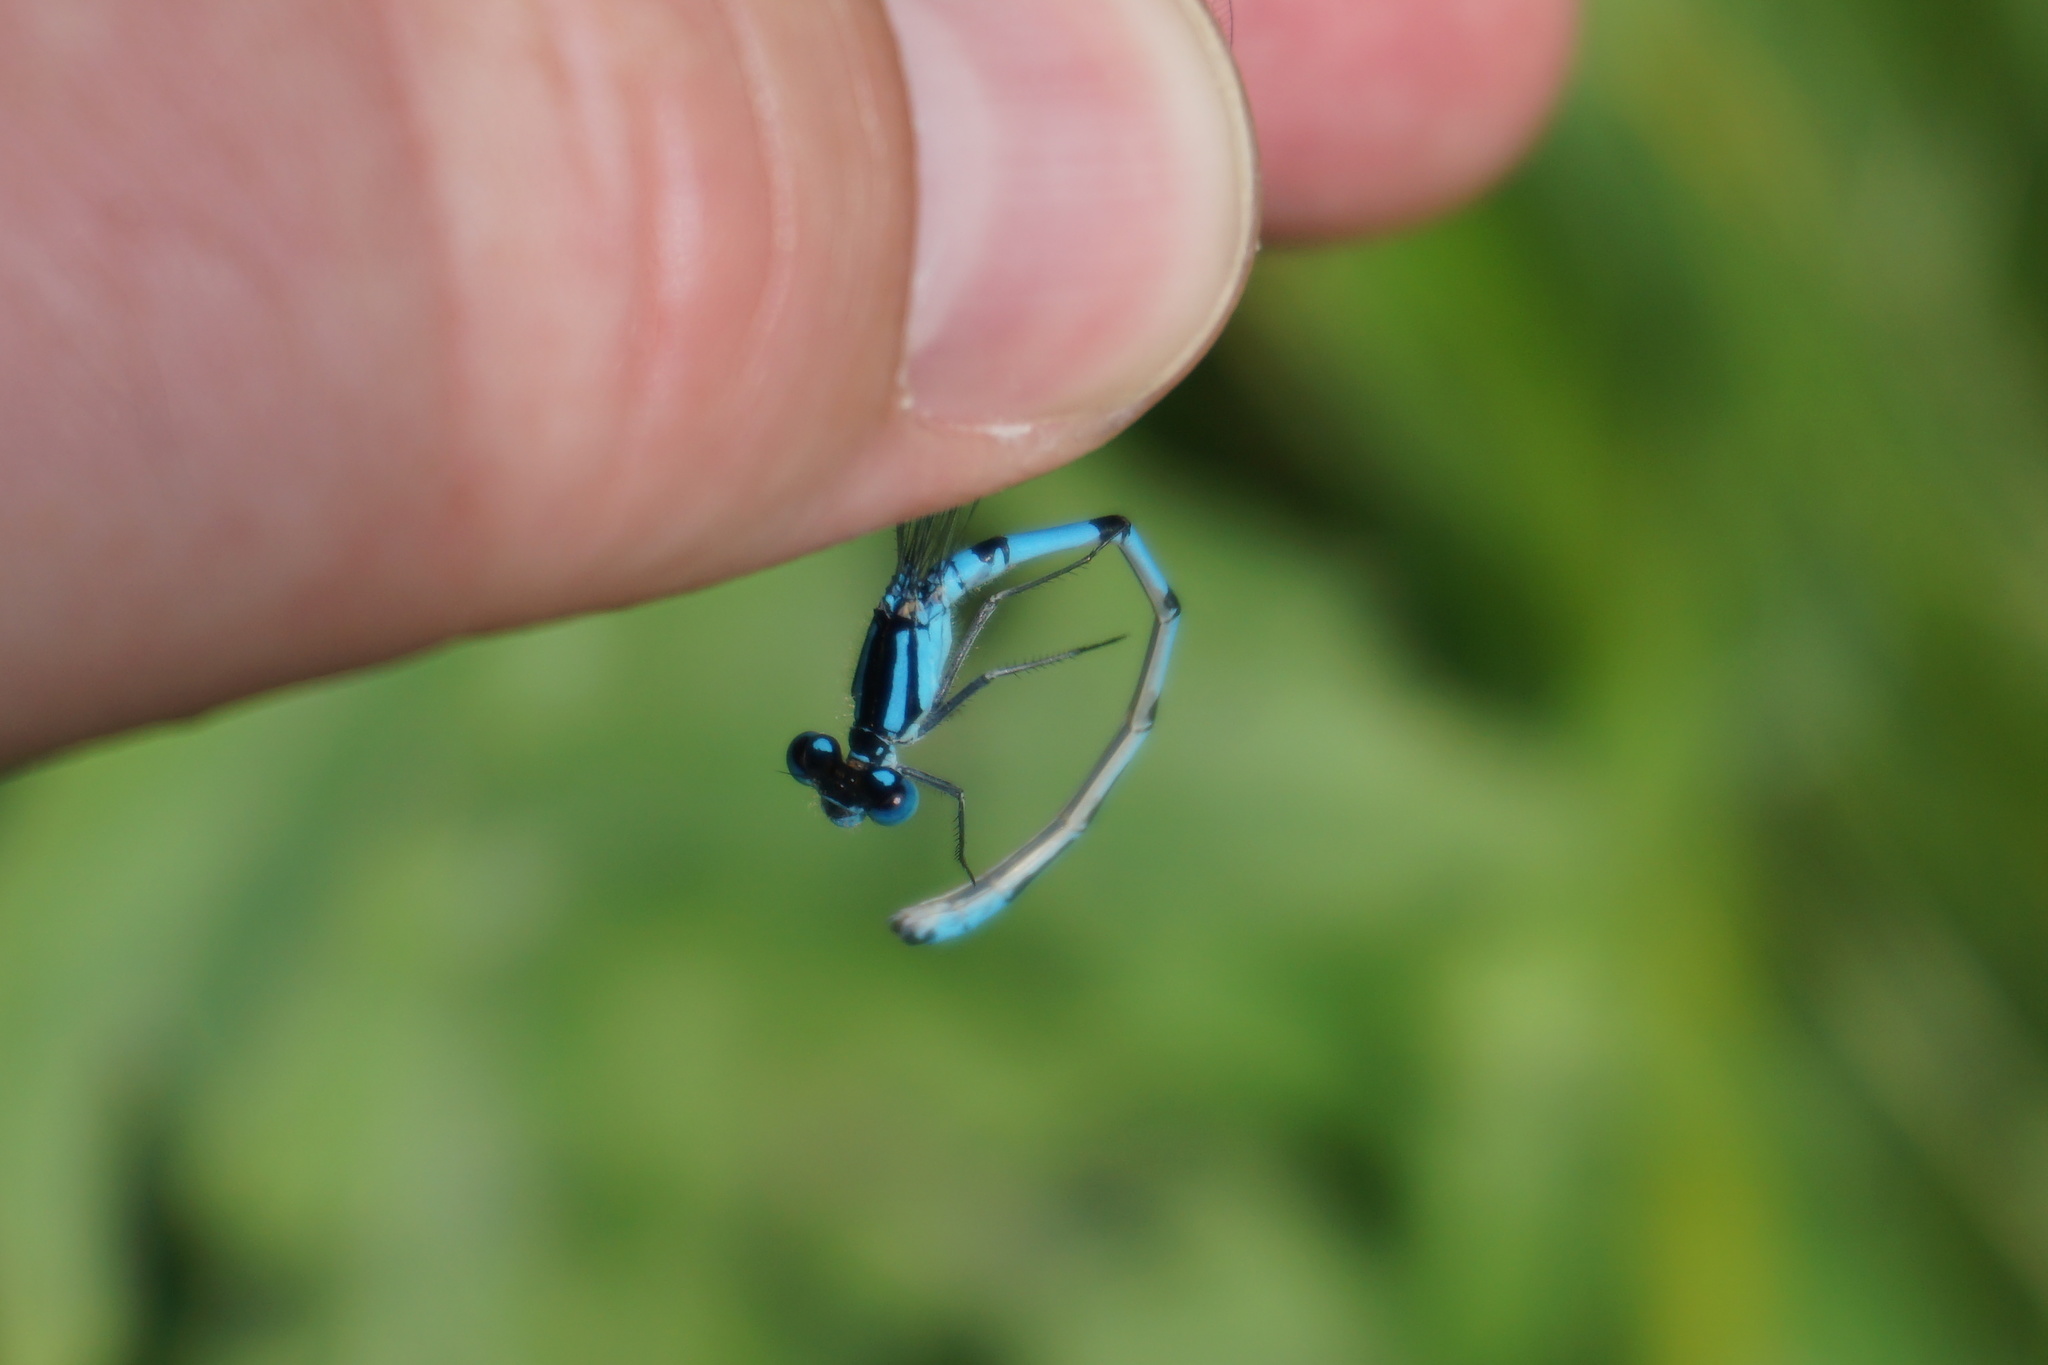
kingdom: Animalia
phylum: Arthropoda
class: Insecta
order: Odonata
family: Coenagrionidae
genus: Enallagma
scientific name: Enallagma cyathigerum
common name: Common blue damselfly
